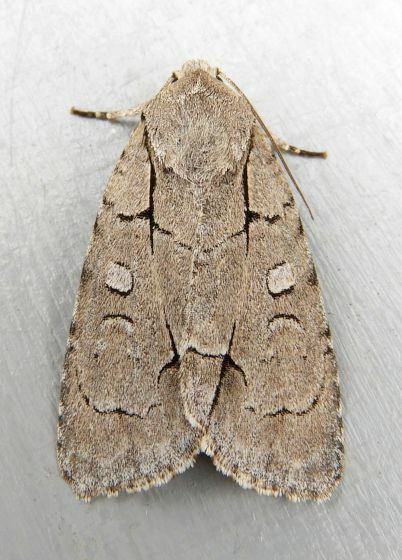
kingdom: Animalia
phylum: Arthropoda
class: Insecta
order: Lepidoptera
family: Noctuidae
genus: Acronicta
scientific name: Acronicta radcliffei
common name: Radcliffe's dagger
